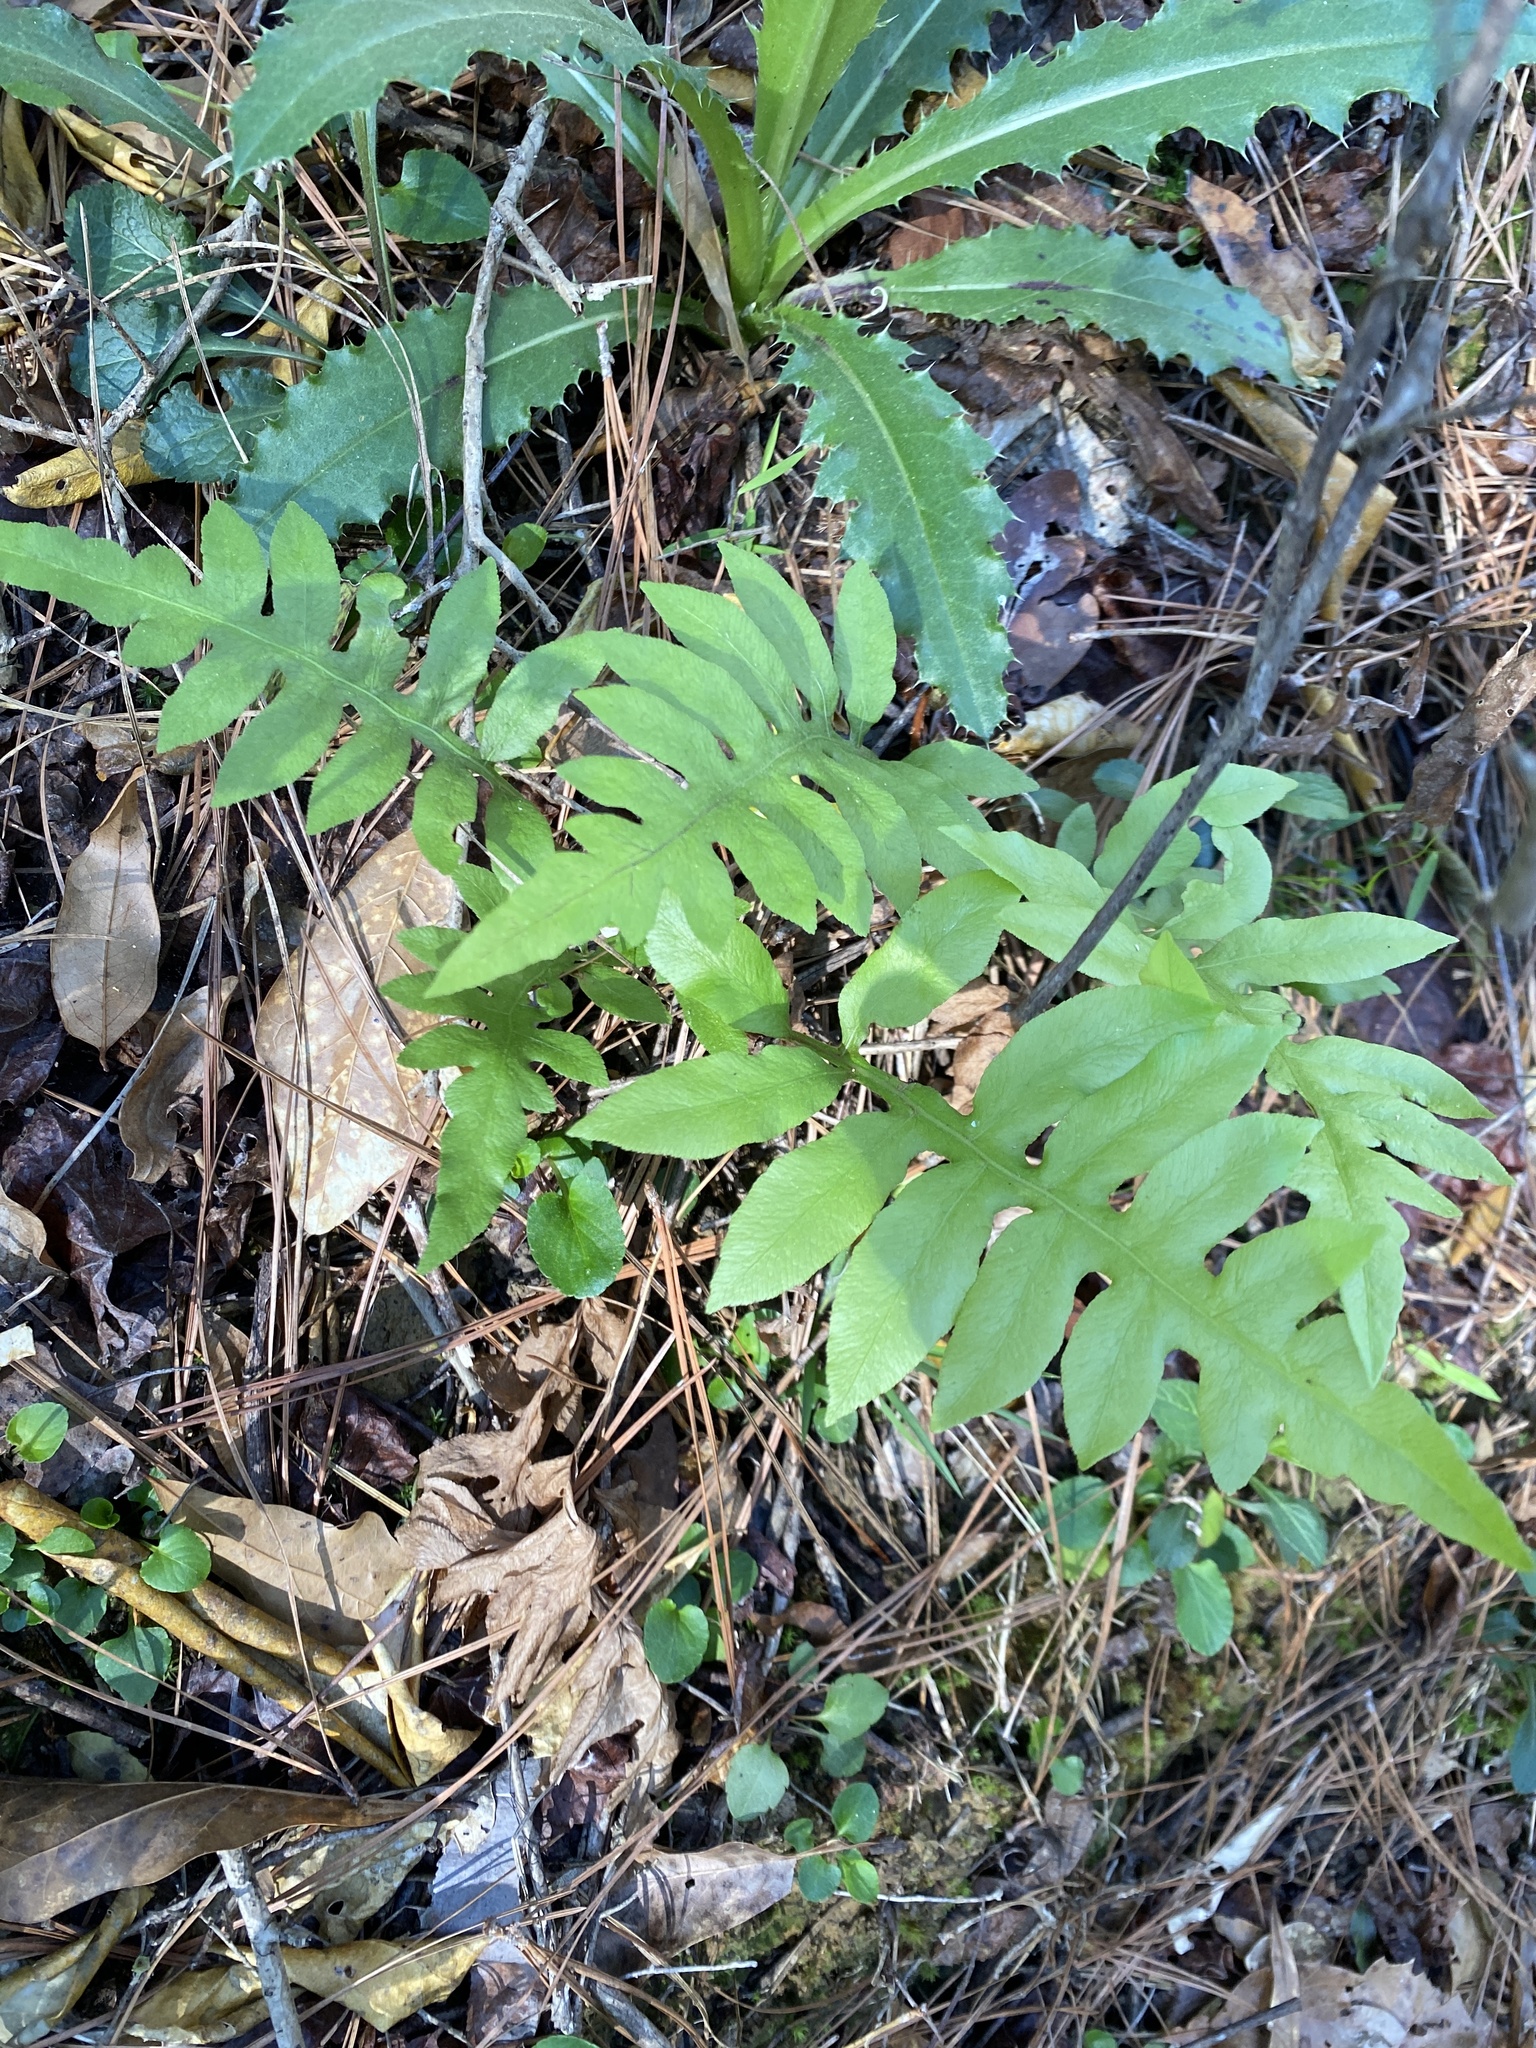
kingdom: Plantae
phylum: Tracheophyta
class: Polypodiopsida
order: Polypodiales
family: Blechnaceae
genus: Lorinseria
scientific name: Lorinseria areolata
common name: Dwarf chain fern
